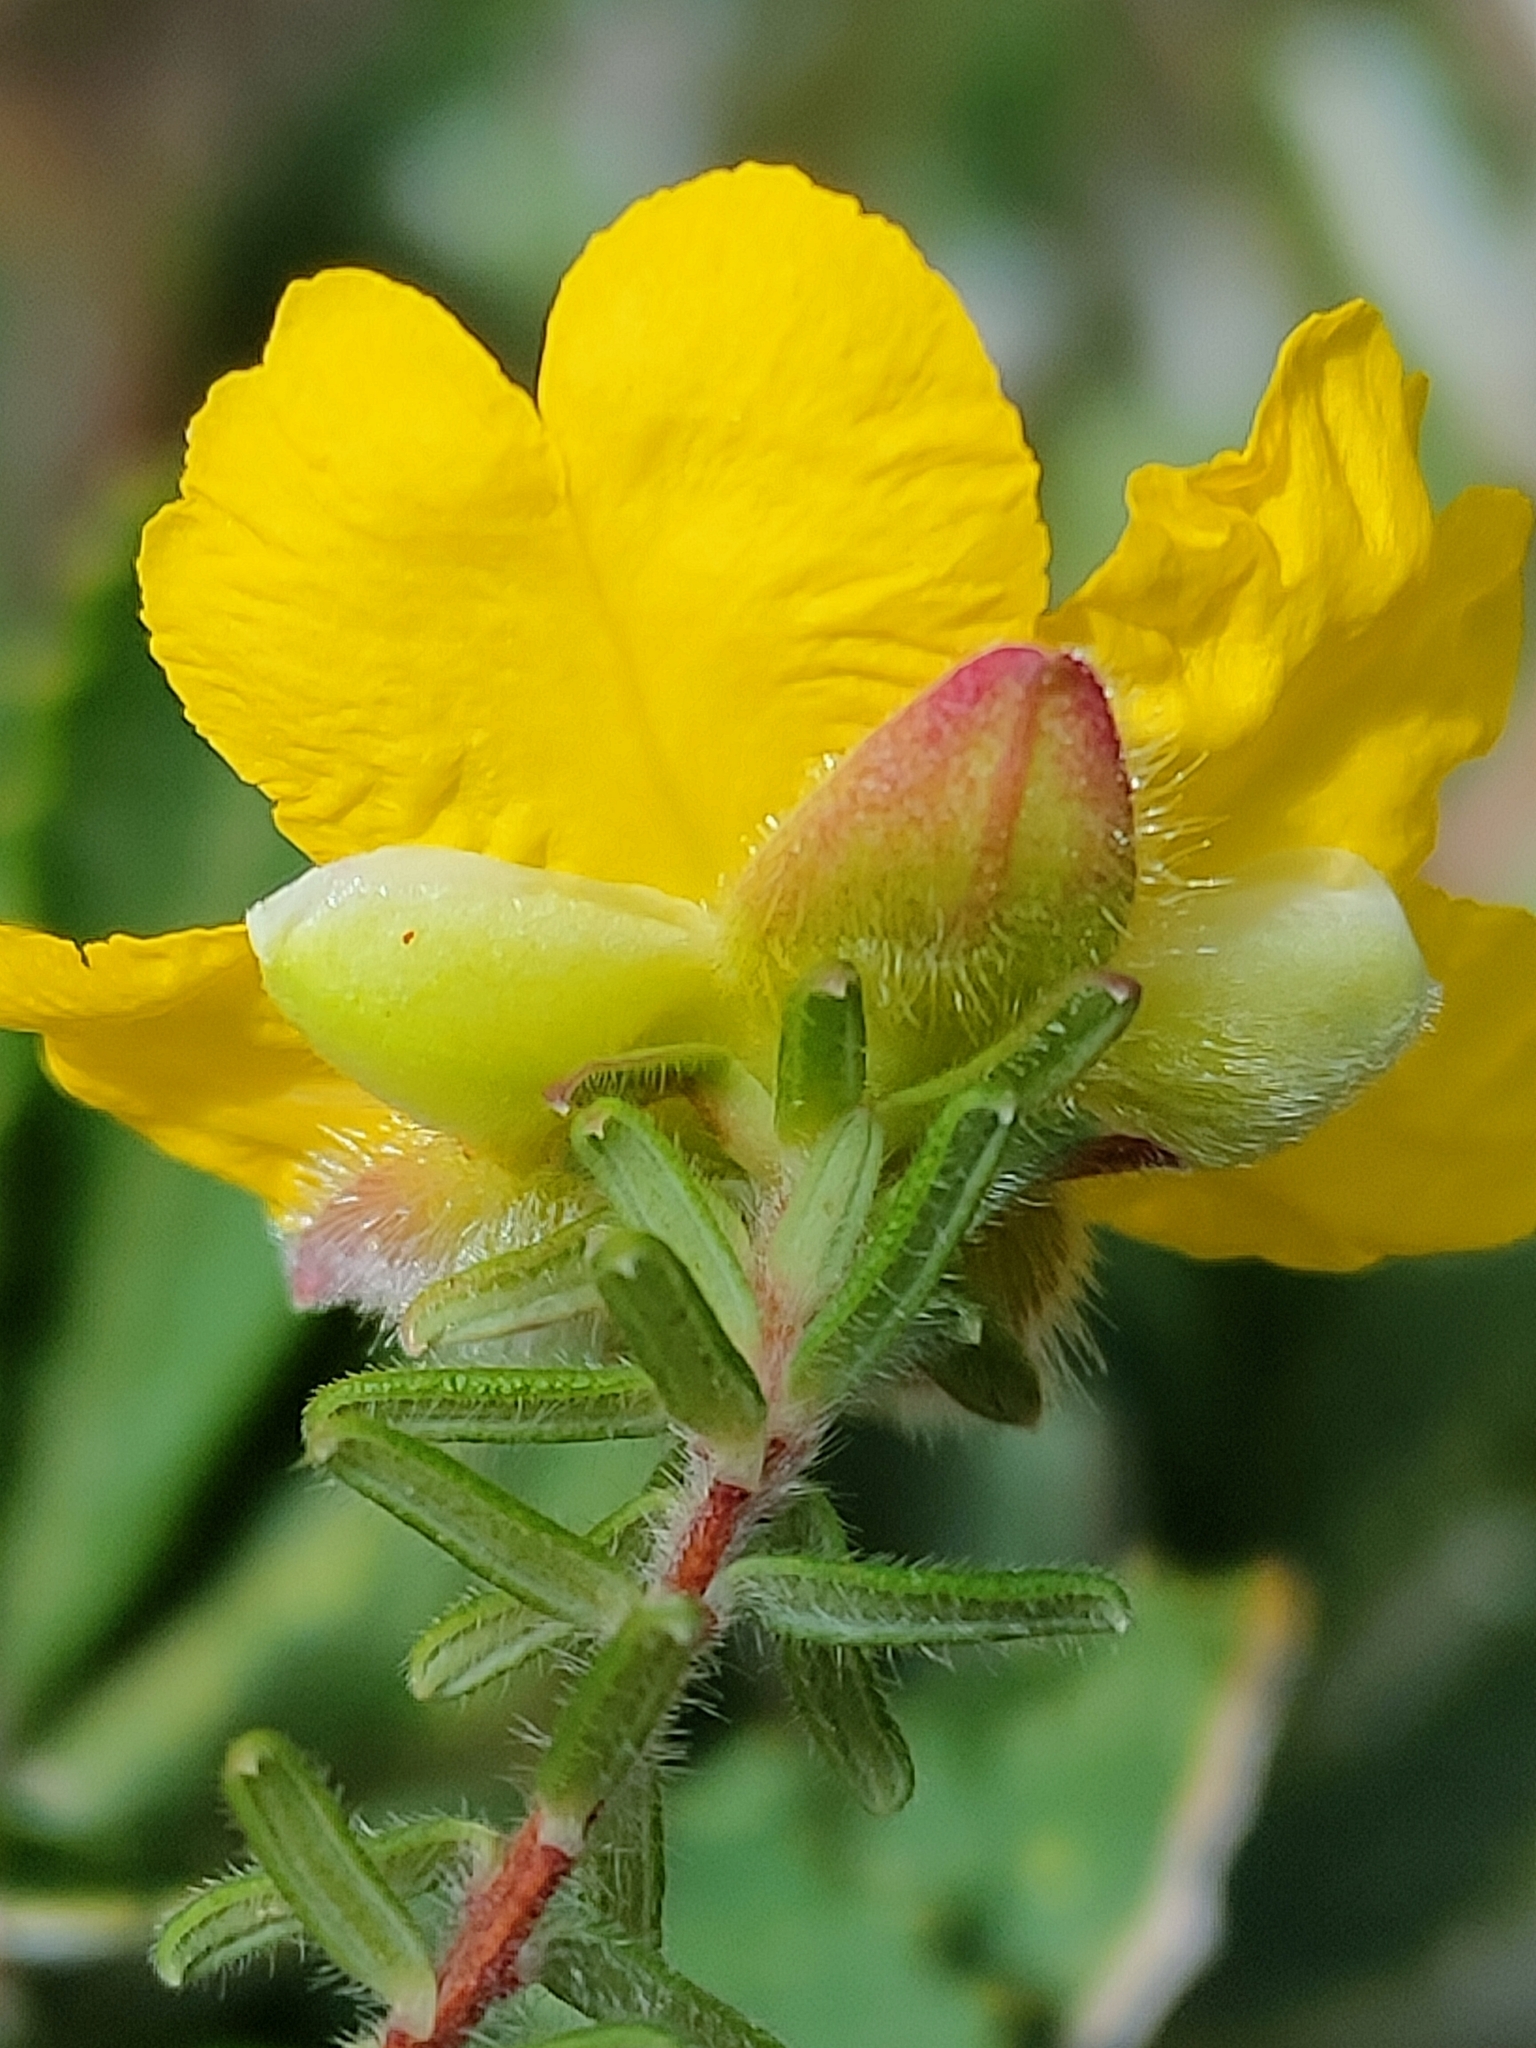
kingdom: Plantae
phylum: Tracheophyta
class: Magnoliopsida
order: Dilleniales
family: Dilleniaceae
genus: Hibbertia
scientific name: Hibbertia vestita
